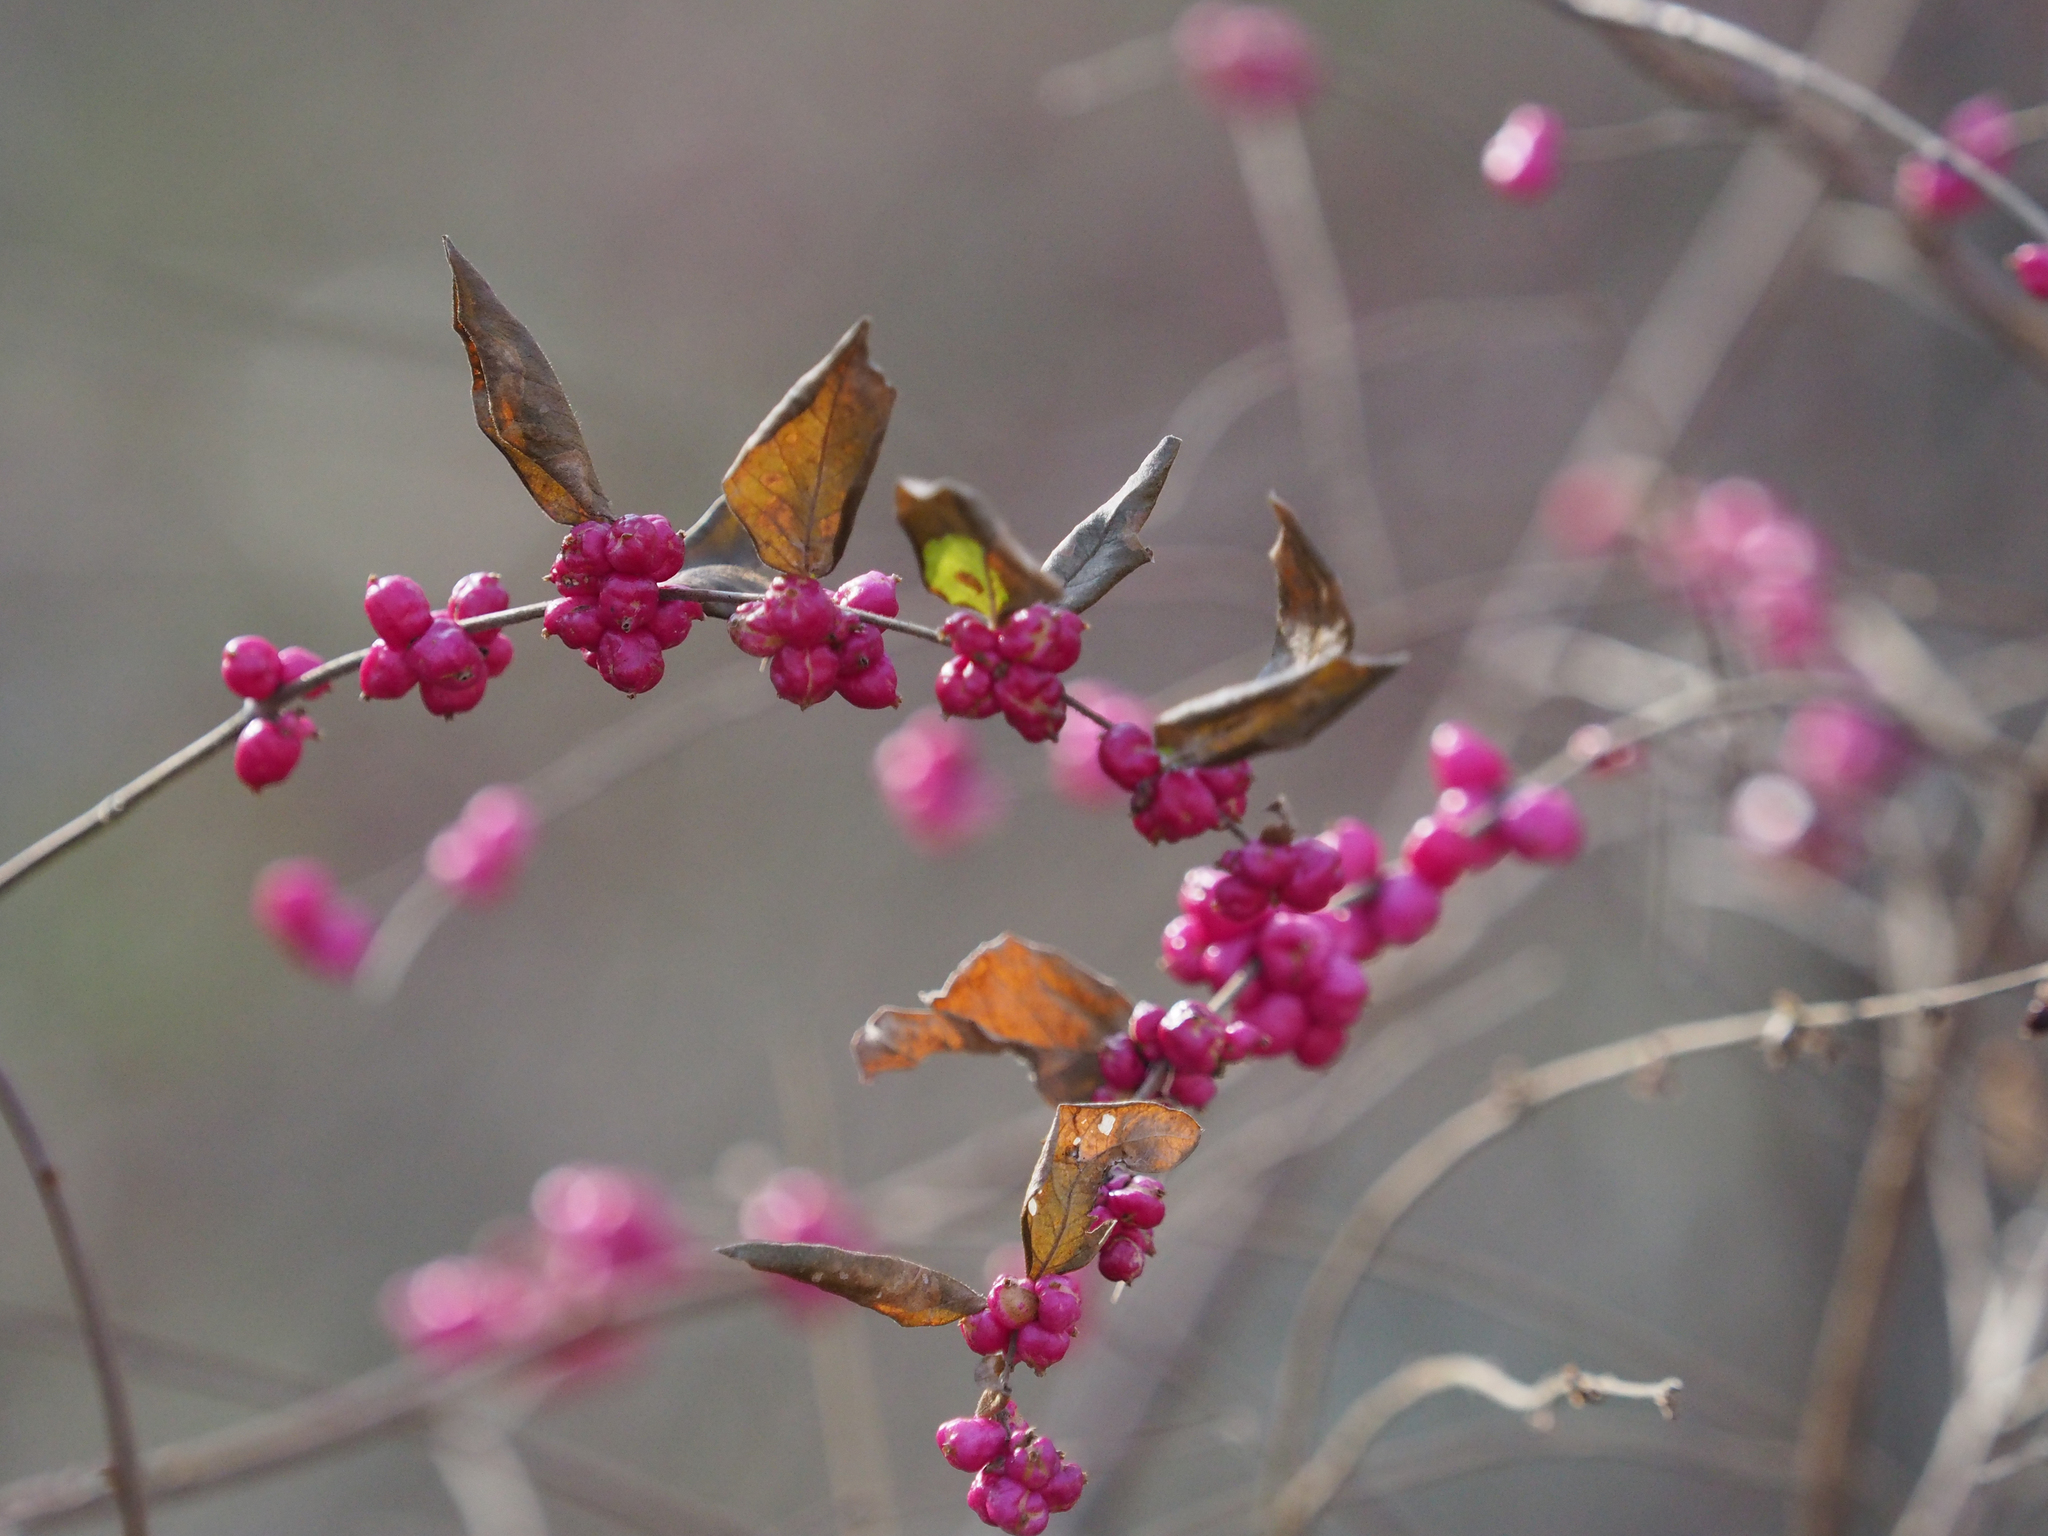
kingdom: Plantae
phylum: Tracheophyta
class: Magnoliopsida
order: Dipsacales
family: Caprifoliaceae
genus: Symphoricarpos
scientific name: Symphoricarpos orbiculatus
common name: Coralberry
